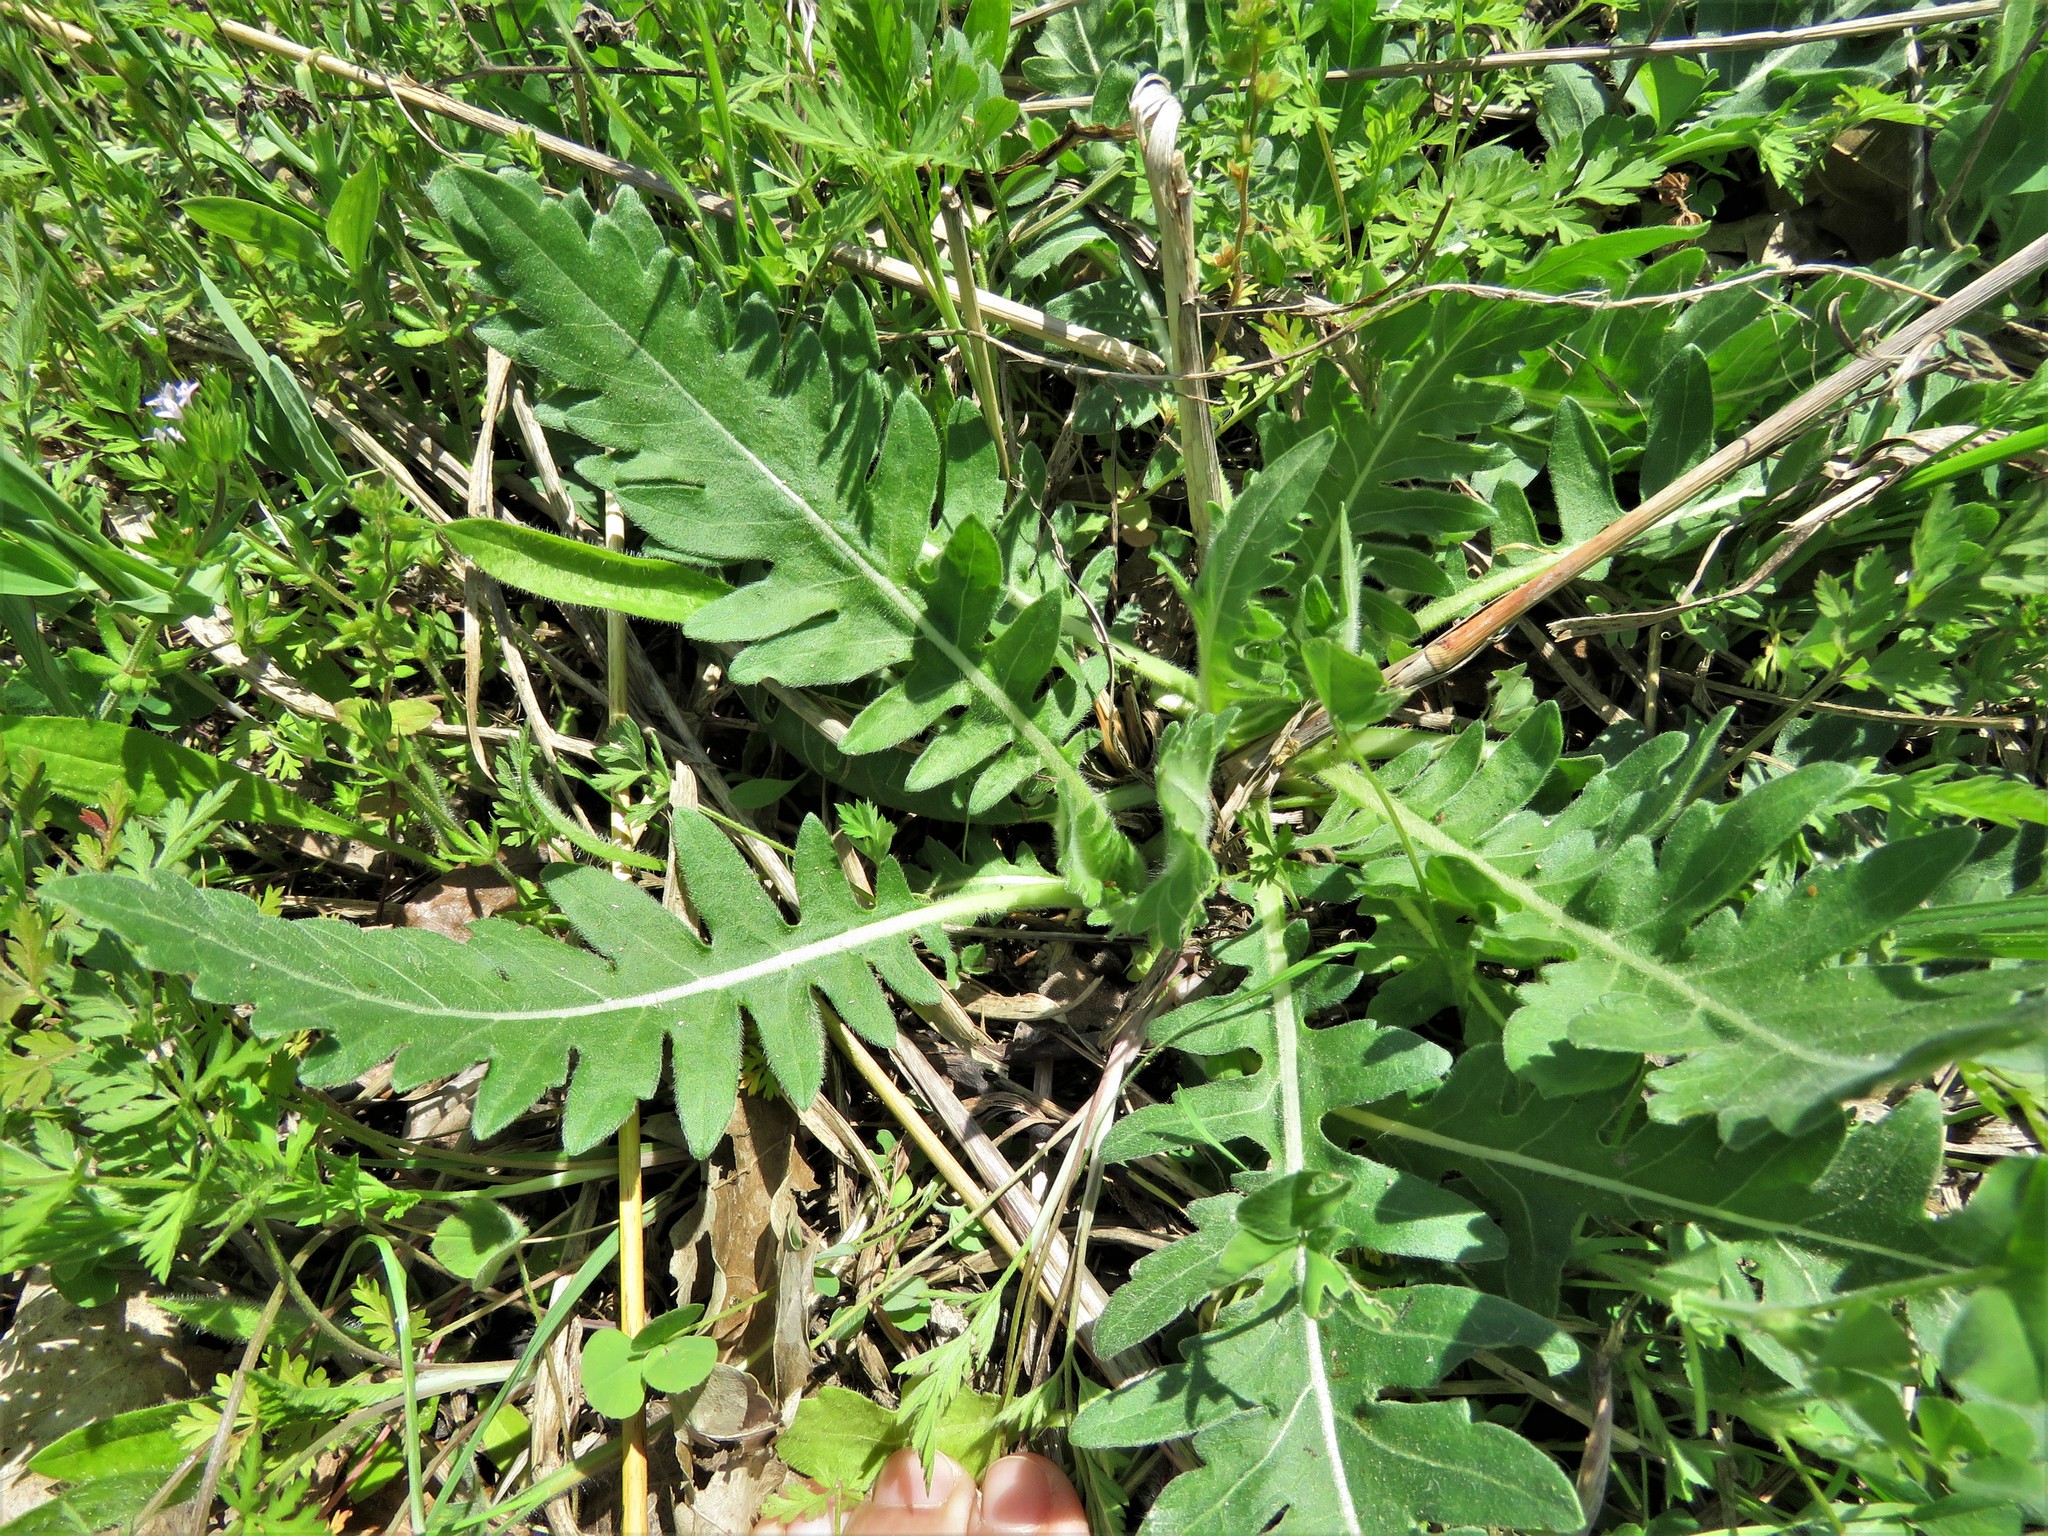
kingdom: Plantae
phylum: Tracheophyta
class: Magnoliopsida
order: Asterales
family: Asteraceae
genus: Engelmannia
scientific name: Engelmannia peristenia
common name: Engelmann's daisy
